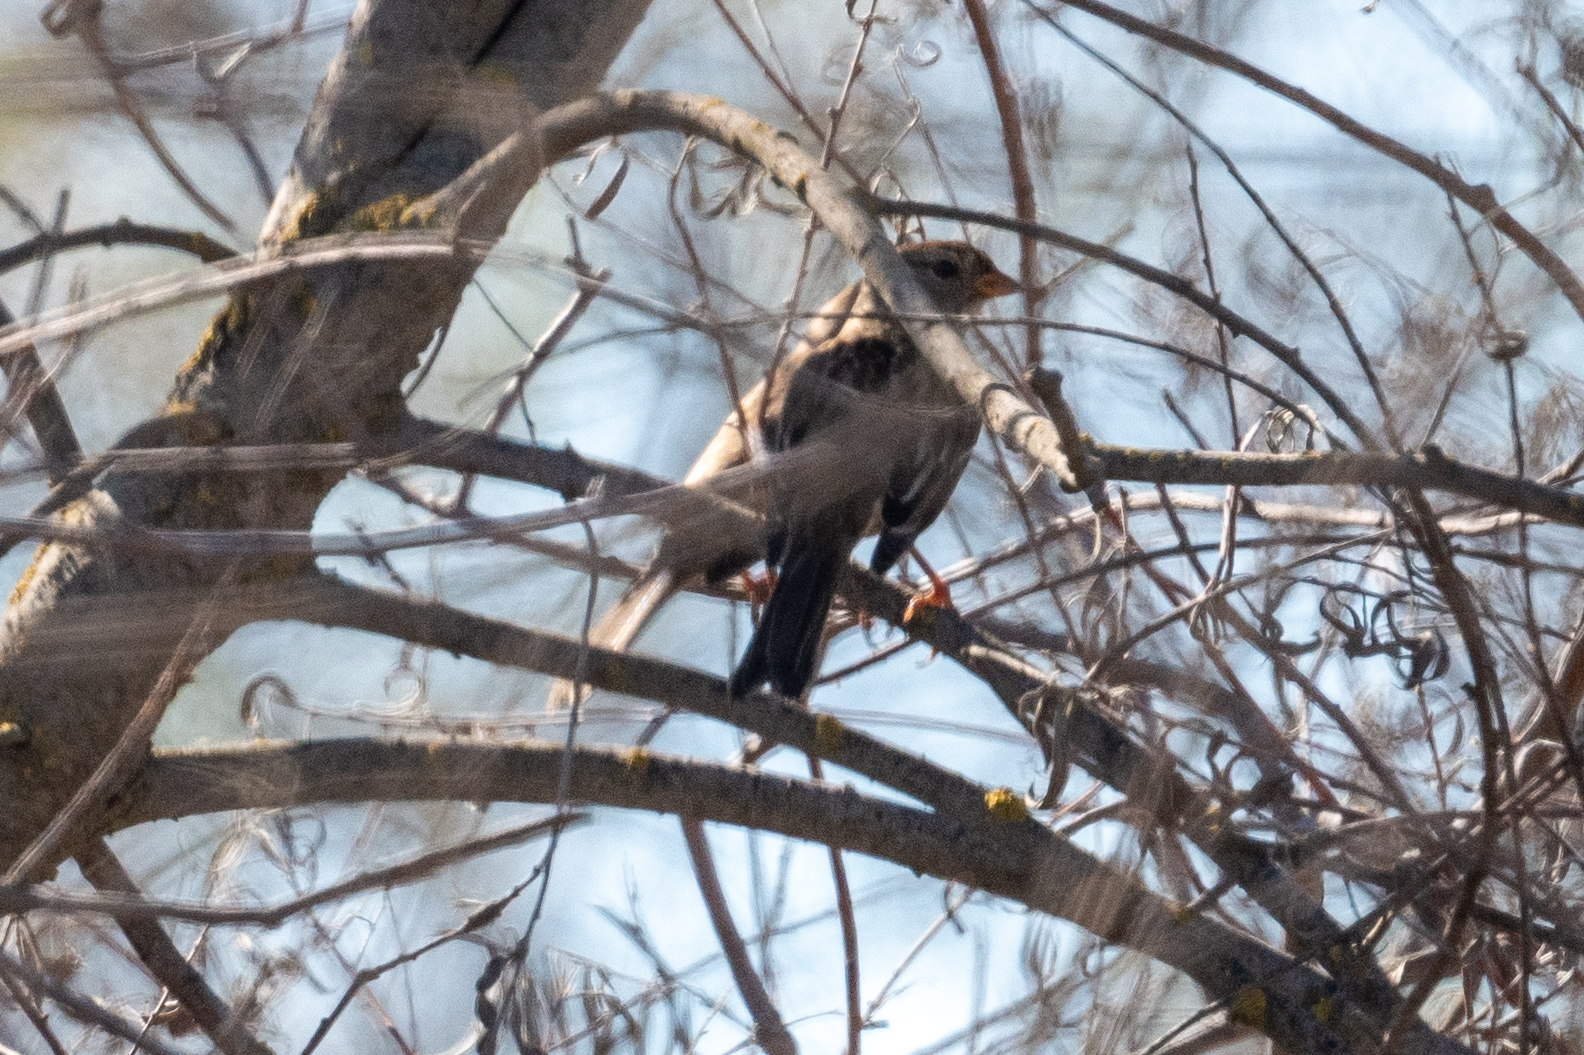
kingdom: Animalia
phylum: Chordata
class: Aves
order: Passeriformes
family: Passerellidae
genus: Zonotrichia
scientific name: Zonotrichia leucophrys
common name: White-crowned sparrow
